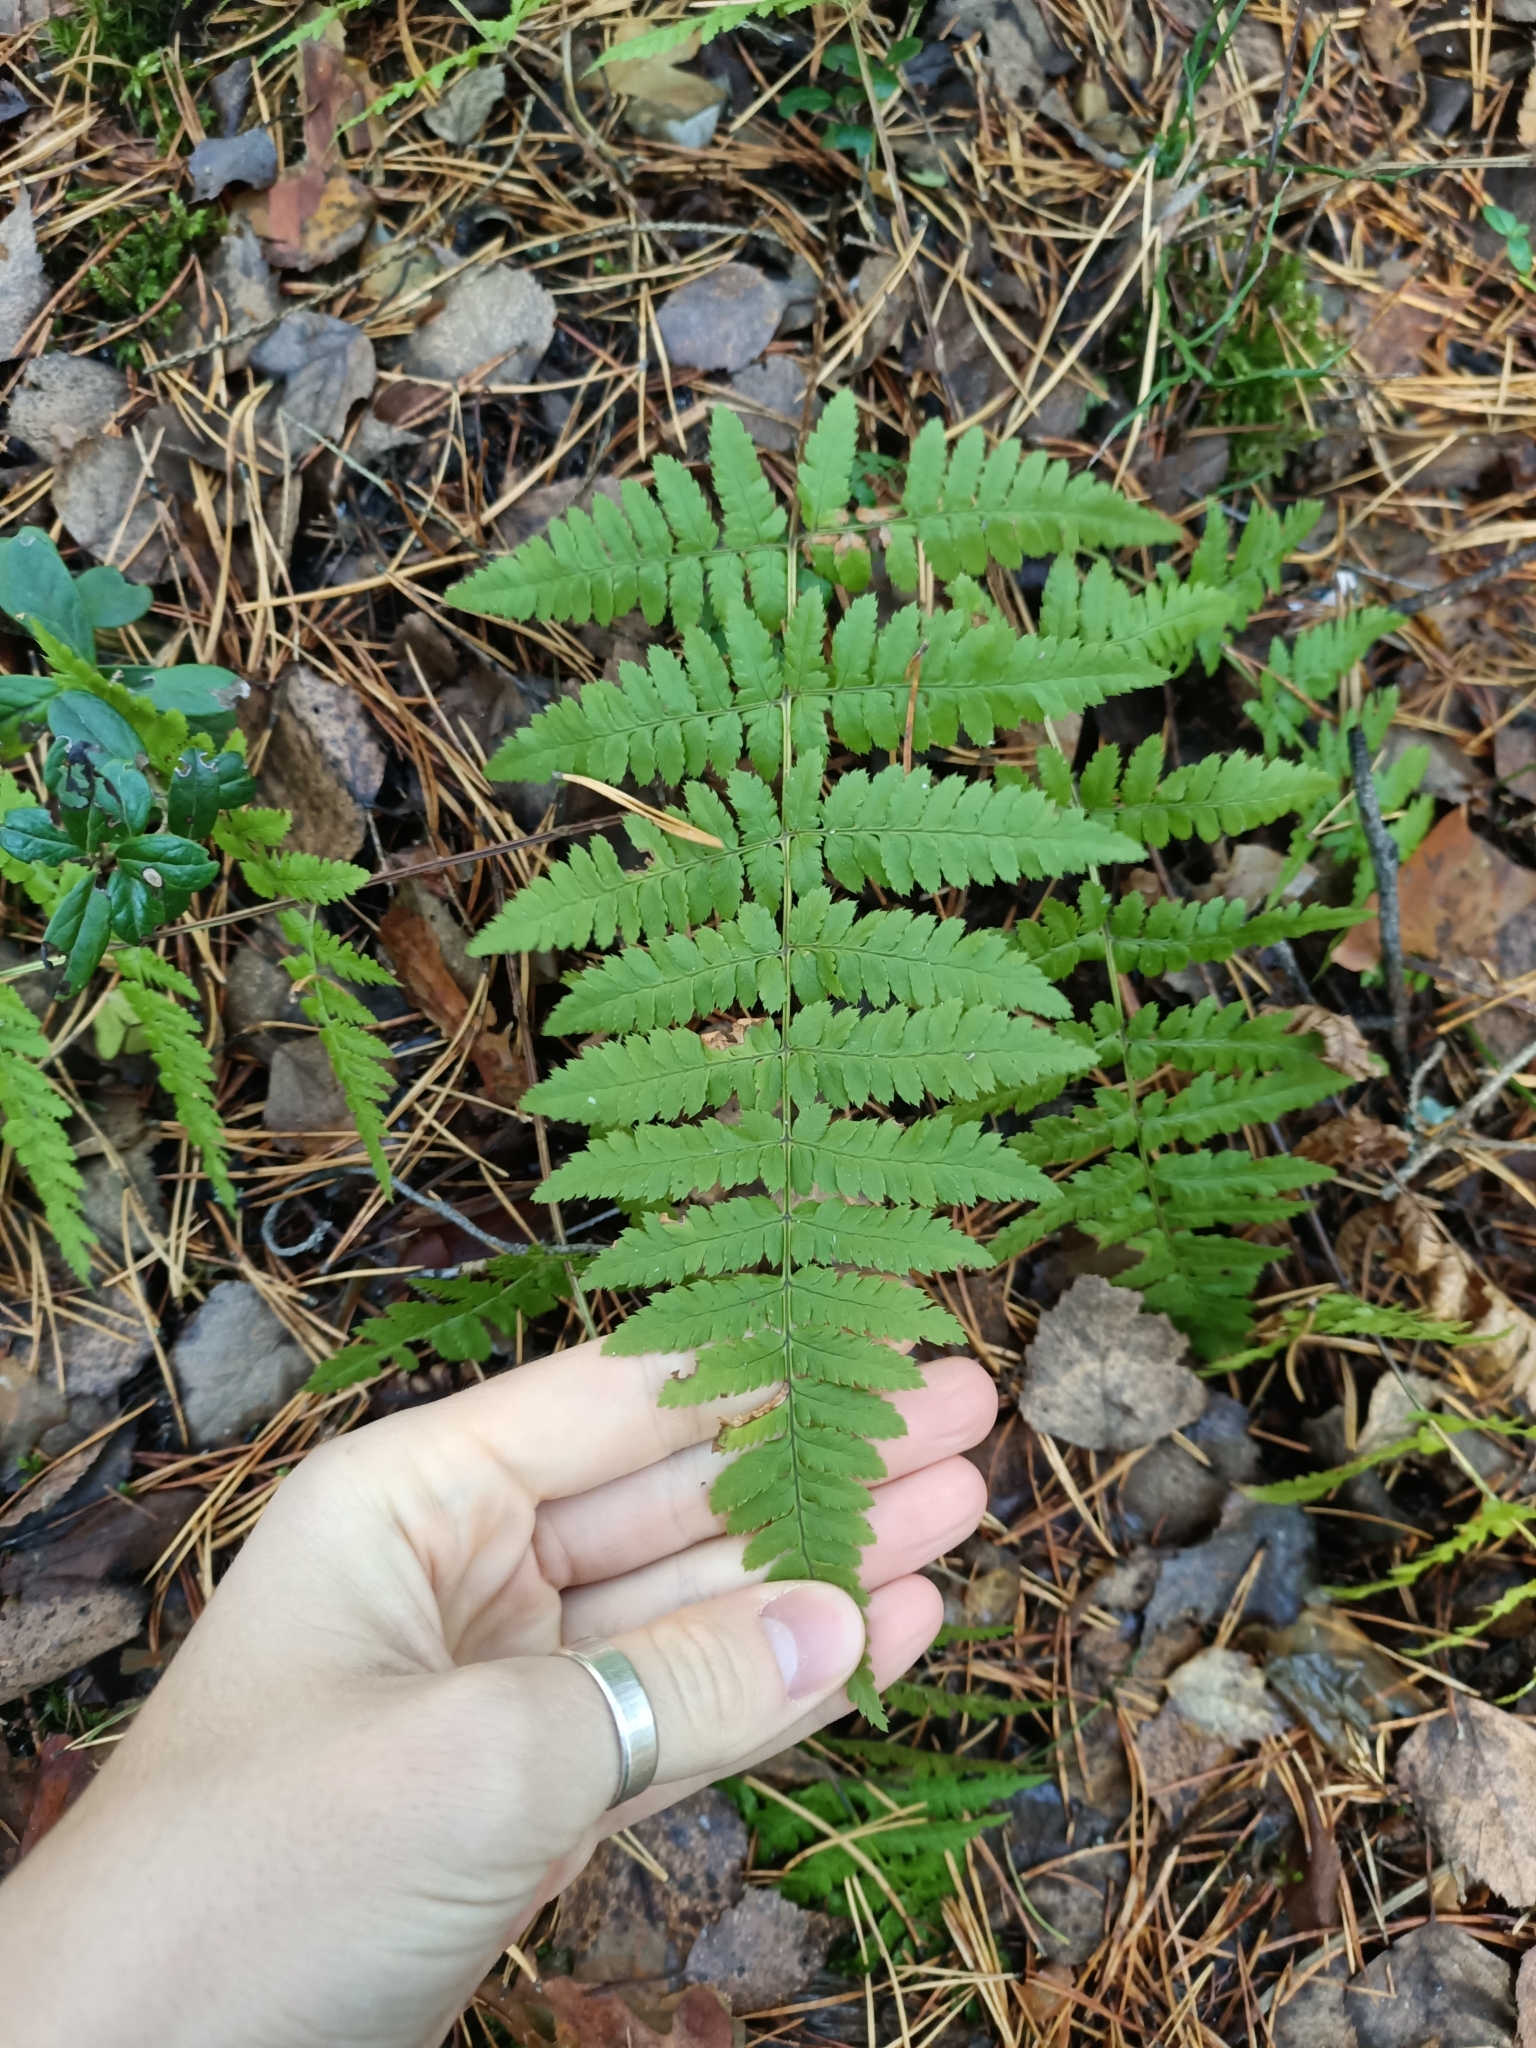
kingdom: Plantae
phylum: Tracheophyta
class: Polypodiopsida
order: Polypodiales
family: Dryopteridaceae
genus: Dryopteris
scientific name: Dryopteris carthusiana
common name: Narrow buckler-fern
